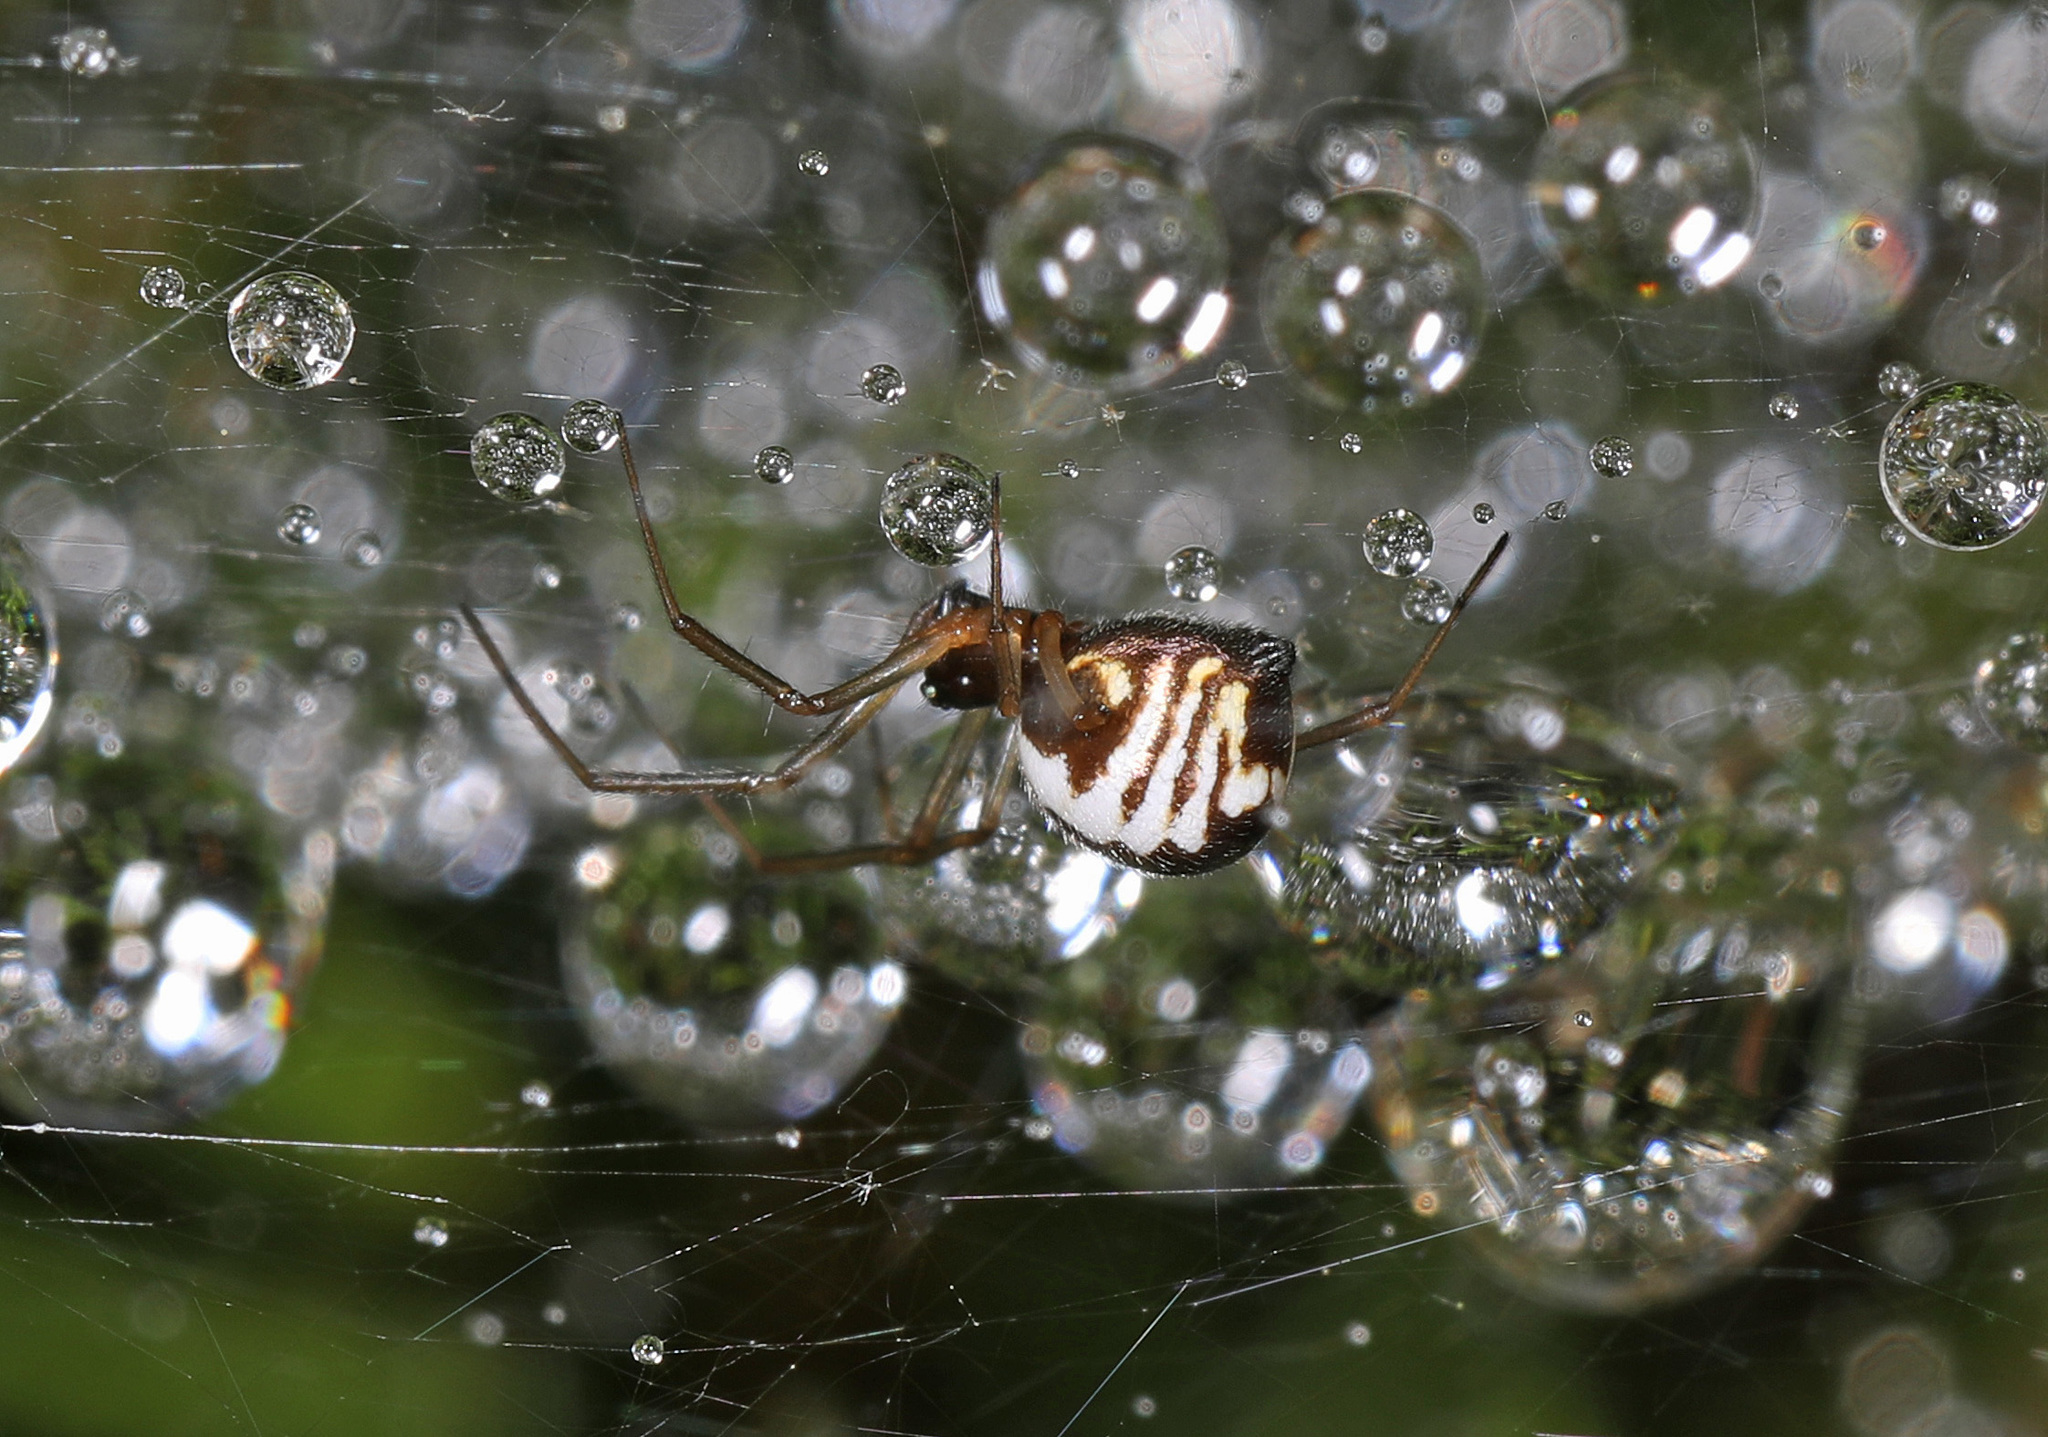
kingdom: Animalia
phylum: Arthropoda
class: Arachnida
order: Araneae
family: Linyphiidae
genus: Frontinella
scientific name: Frontinella pyramitela
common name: Bowl-and-doily spider
